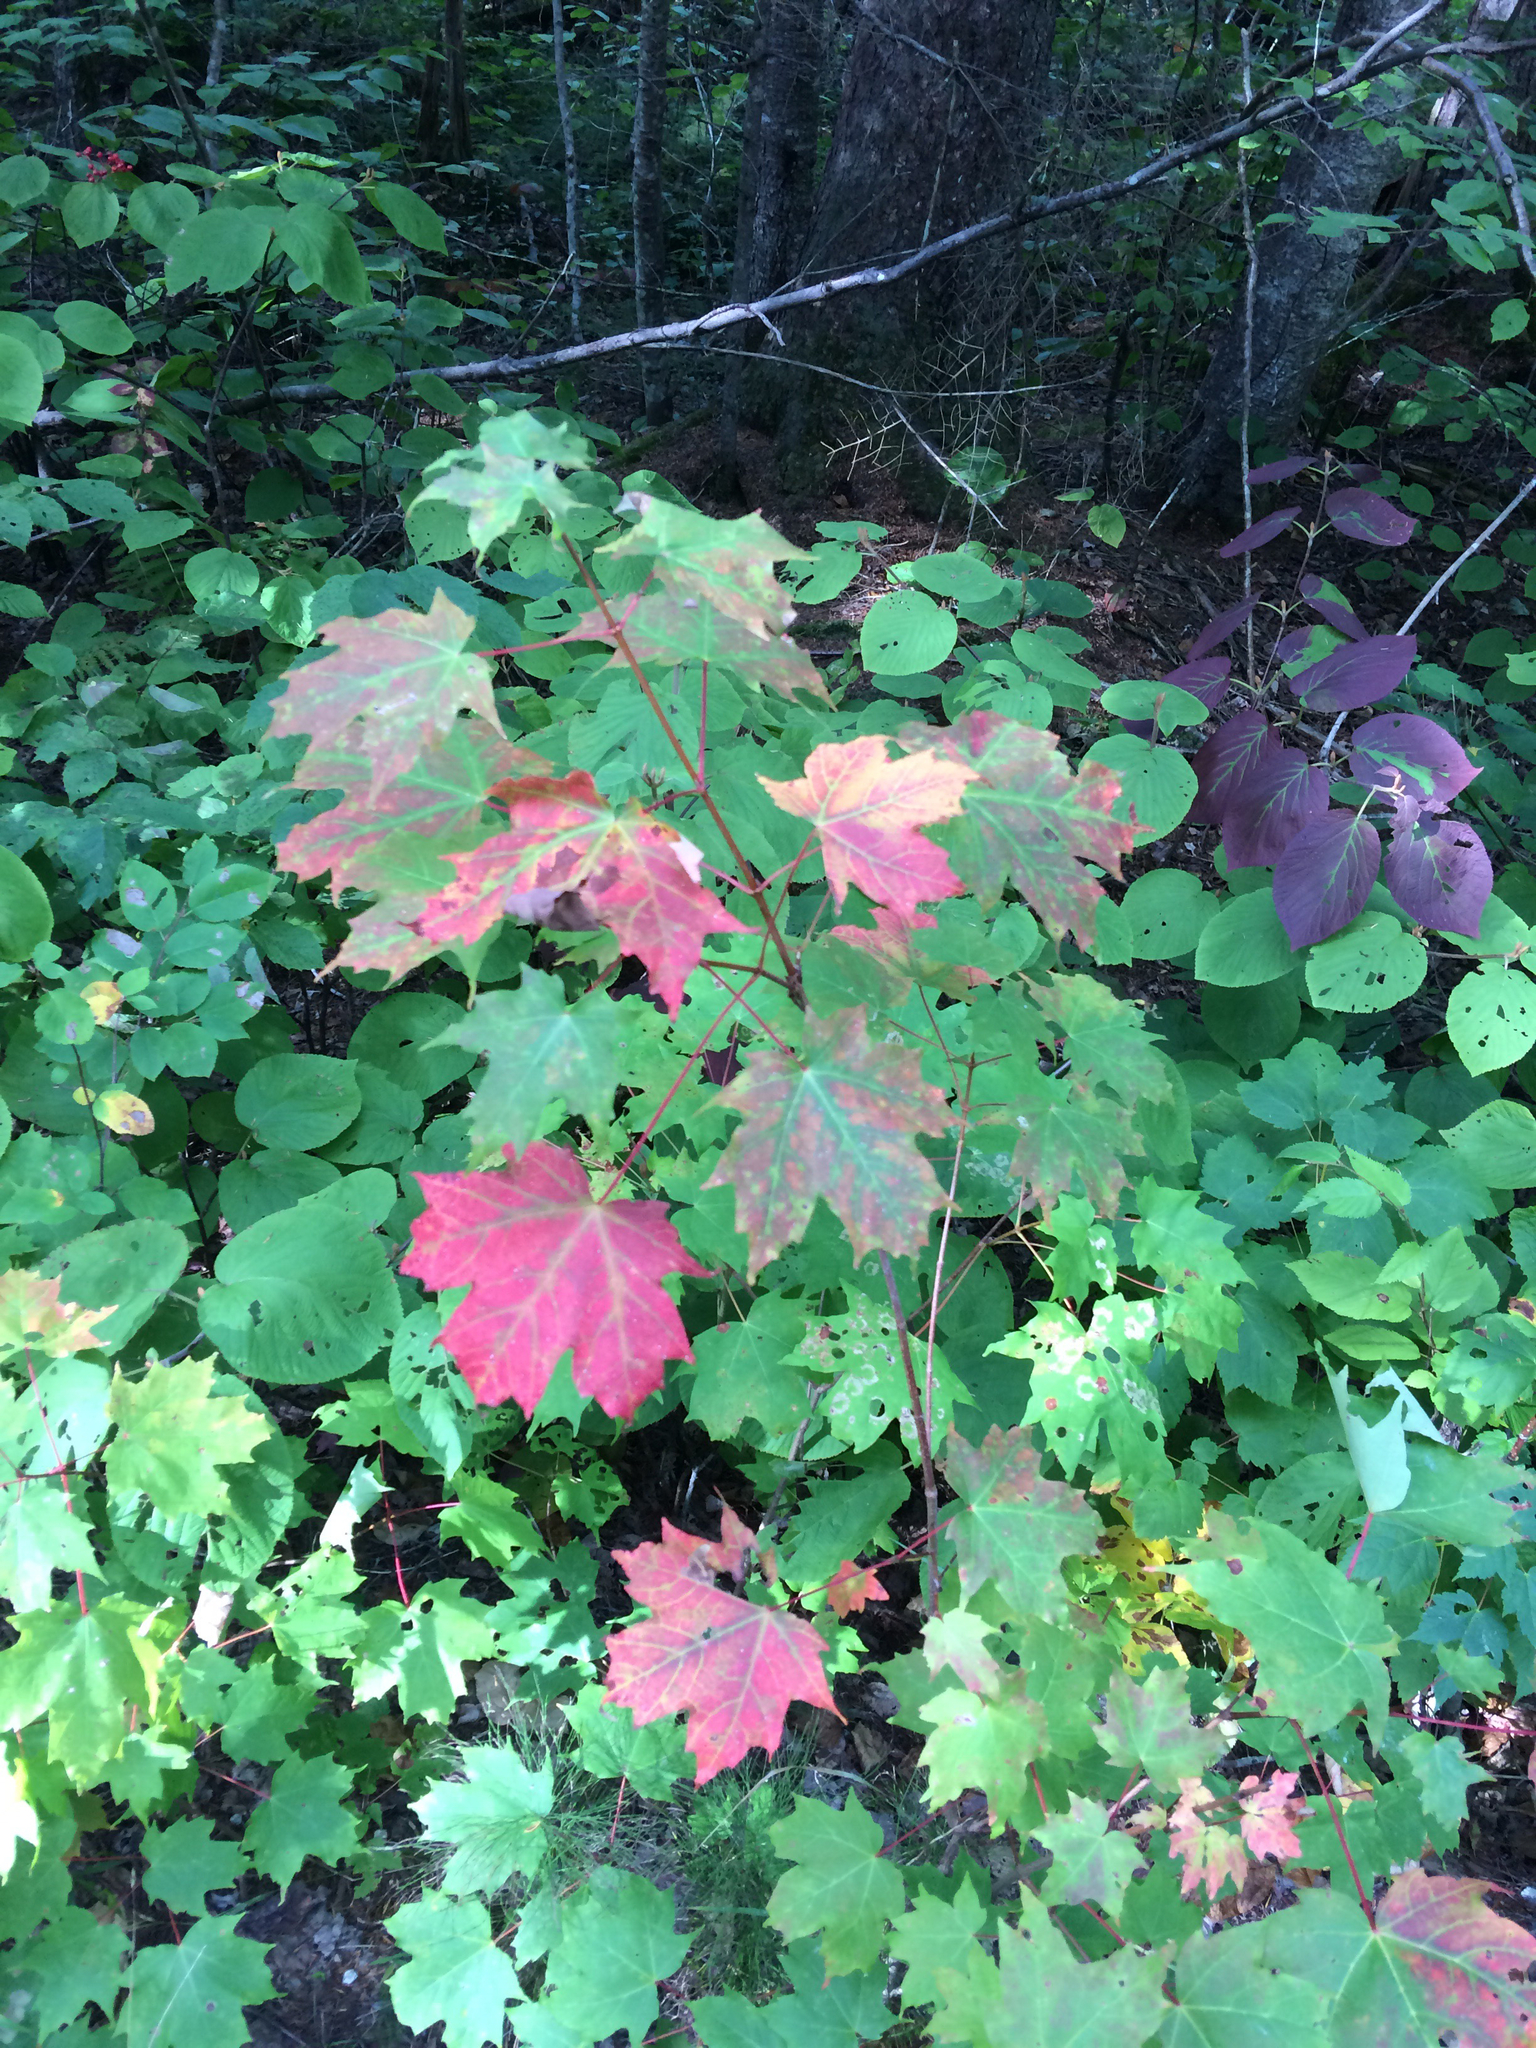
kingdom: Plantae
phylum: Tracheophyta
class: Magnoliopsida
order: Sapindales
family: Sapindaceae
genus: Acer
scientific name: Acer saccharum
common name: Sugar maple
